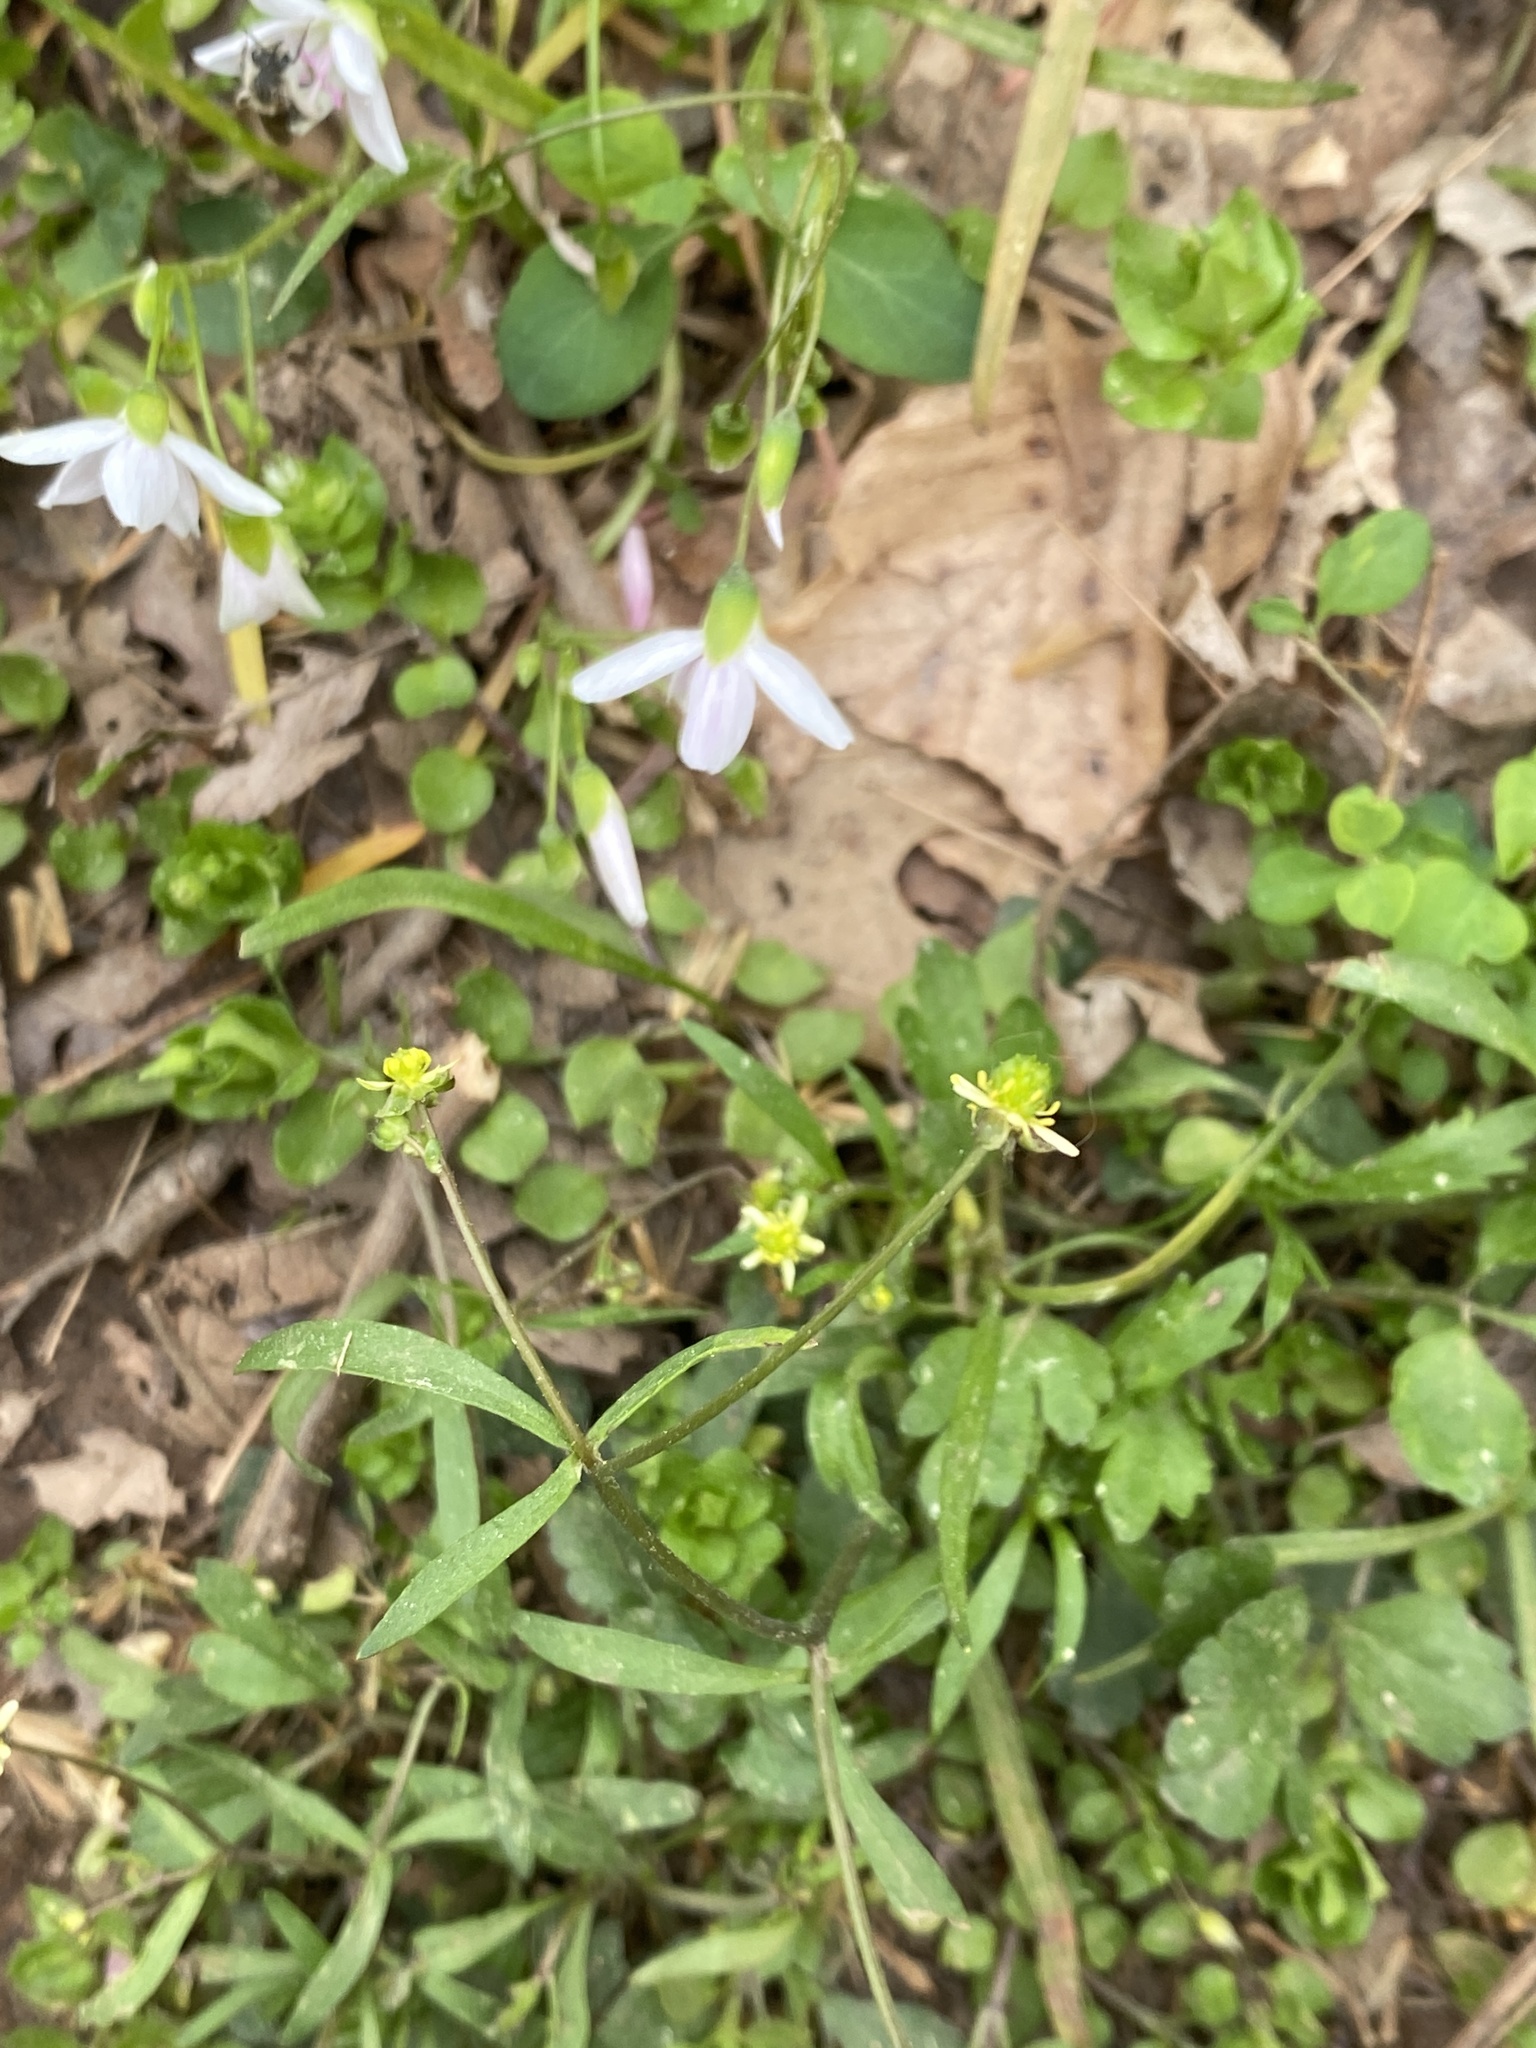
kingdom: Plantae
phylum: Tracheophyta
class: Magnoliopsida
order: Ranunculales
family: Ranunculaceae
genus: Ranunculus
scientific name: Ranunculus abortivus
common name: Early wood buttercup
